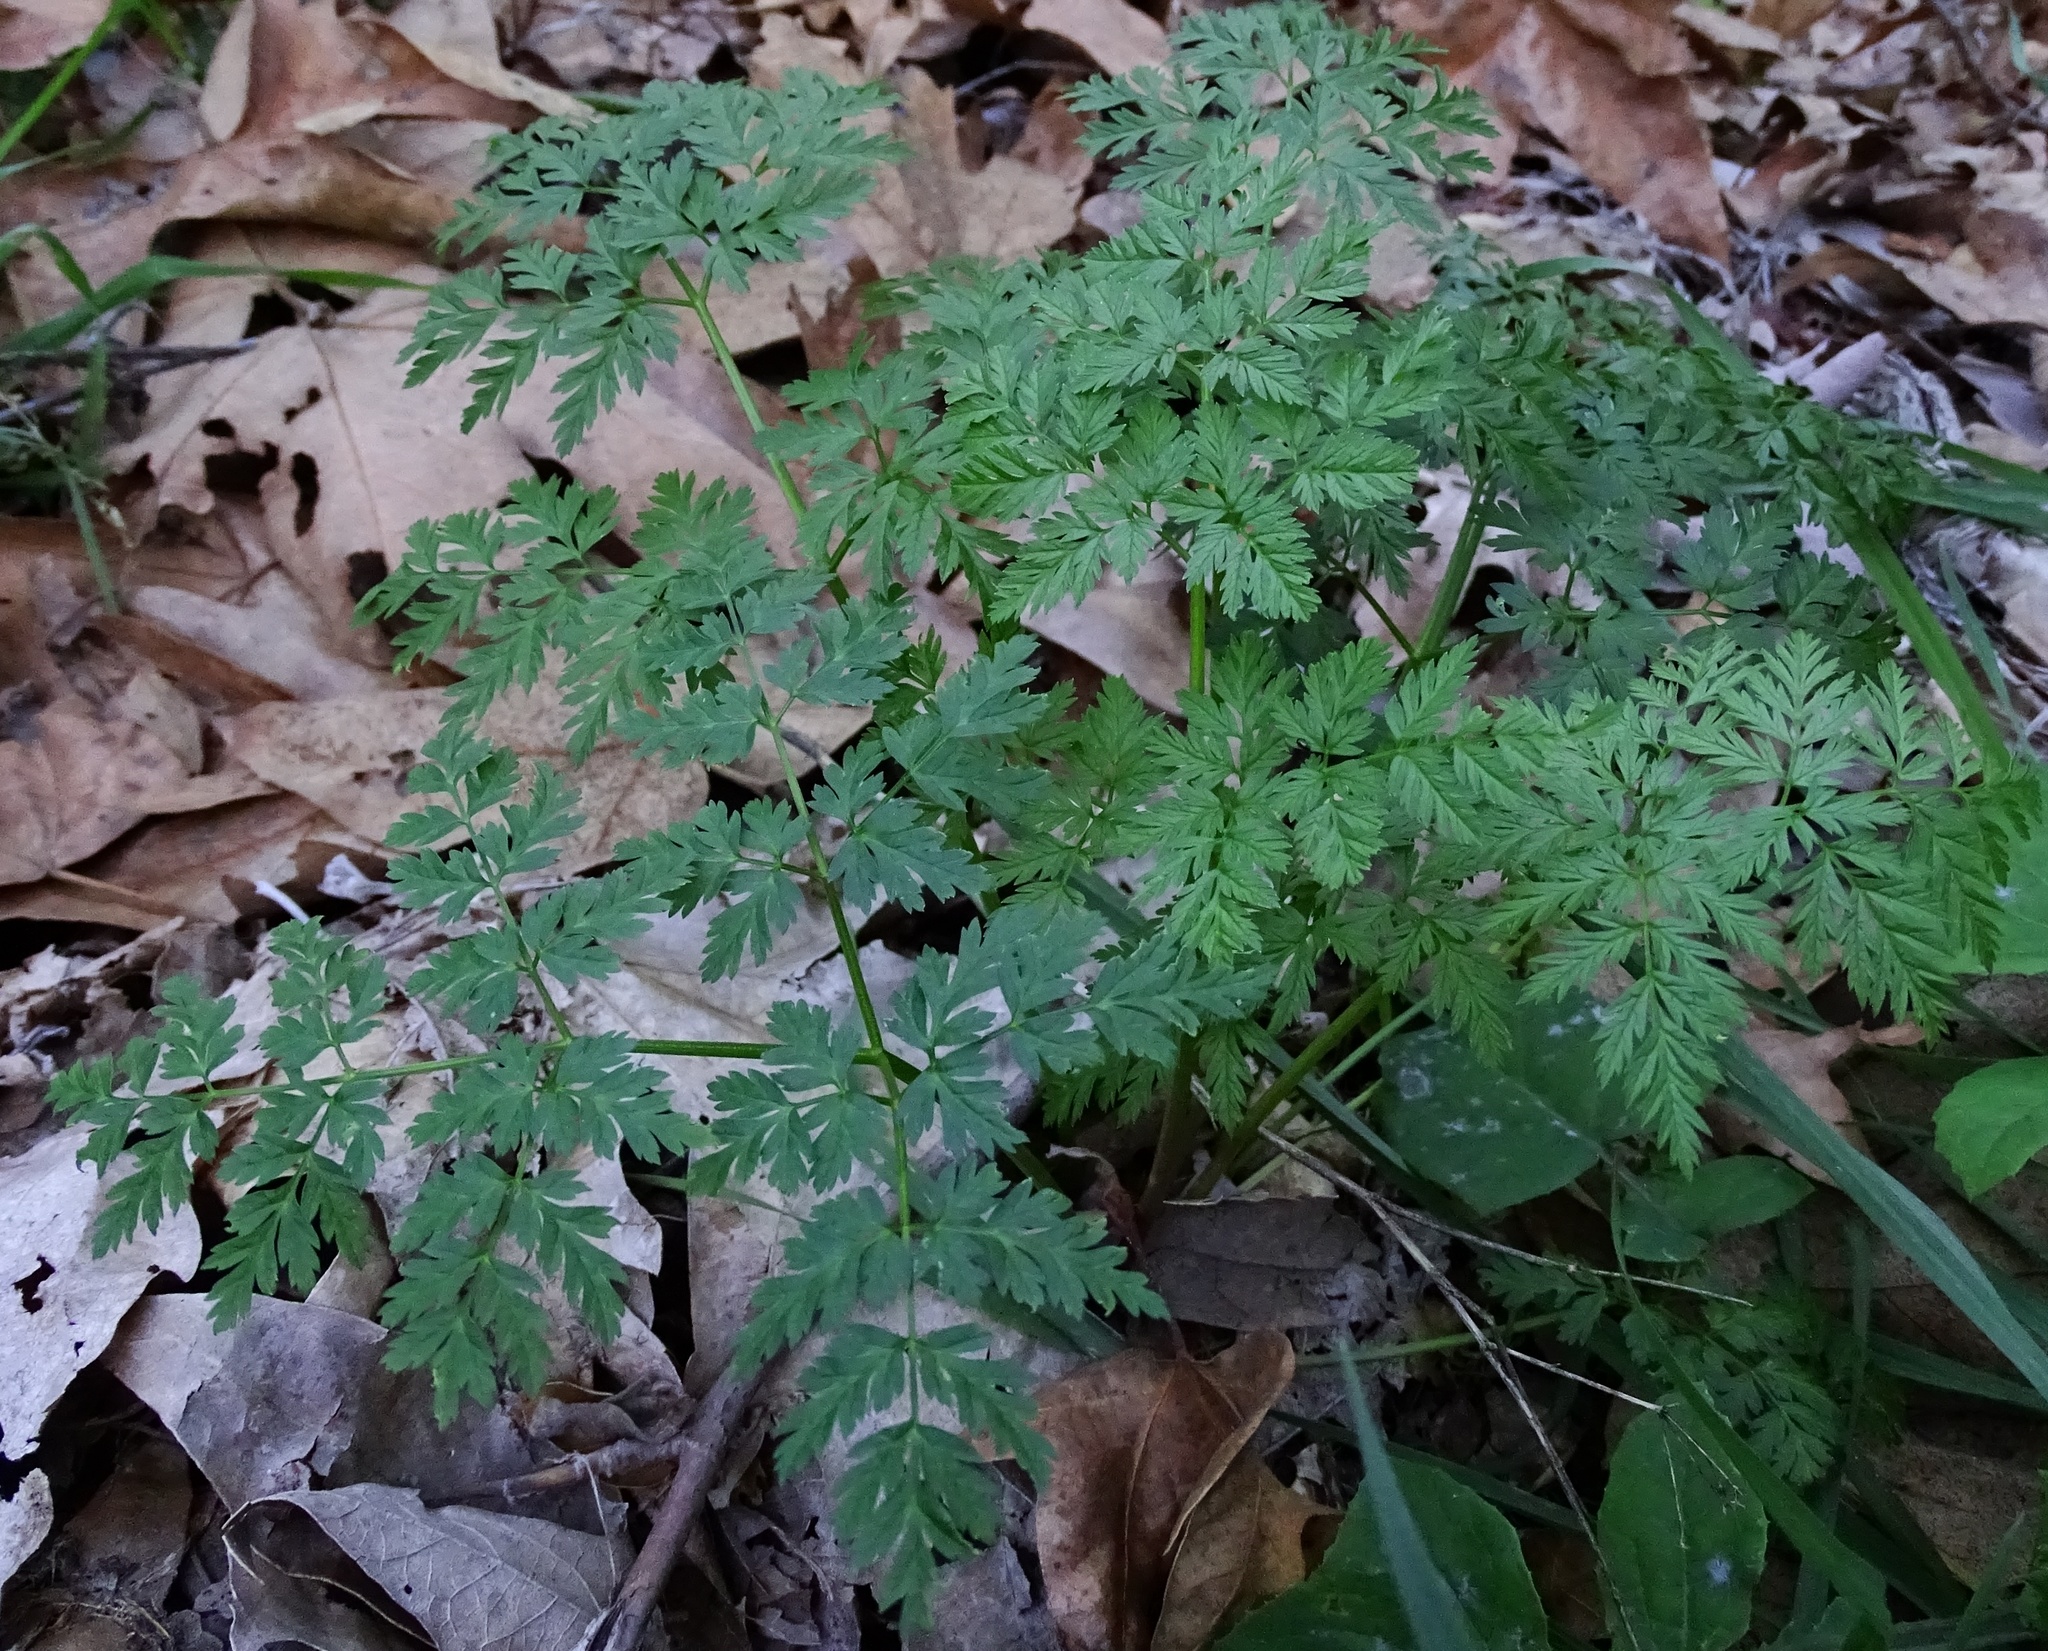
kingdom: Plantae
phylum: Tracheophyta
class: Magnoliopsida
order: Apiales
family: Apiaceae
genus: Conium
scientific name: Conium maculatum
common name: Hemlock
